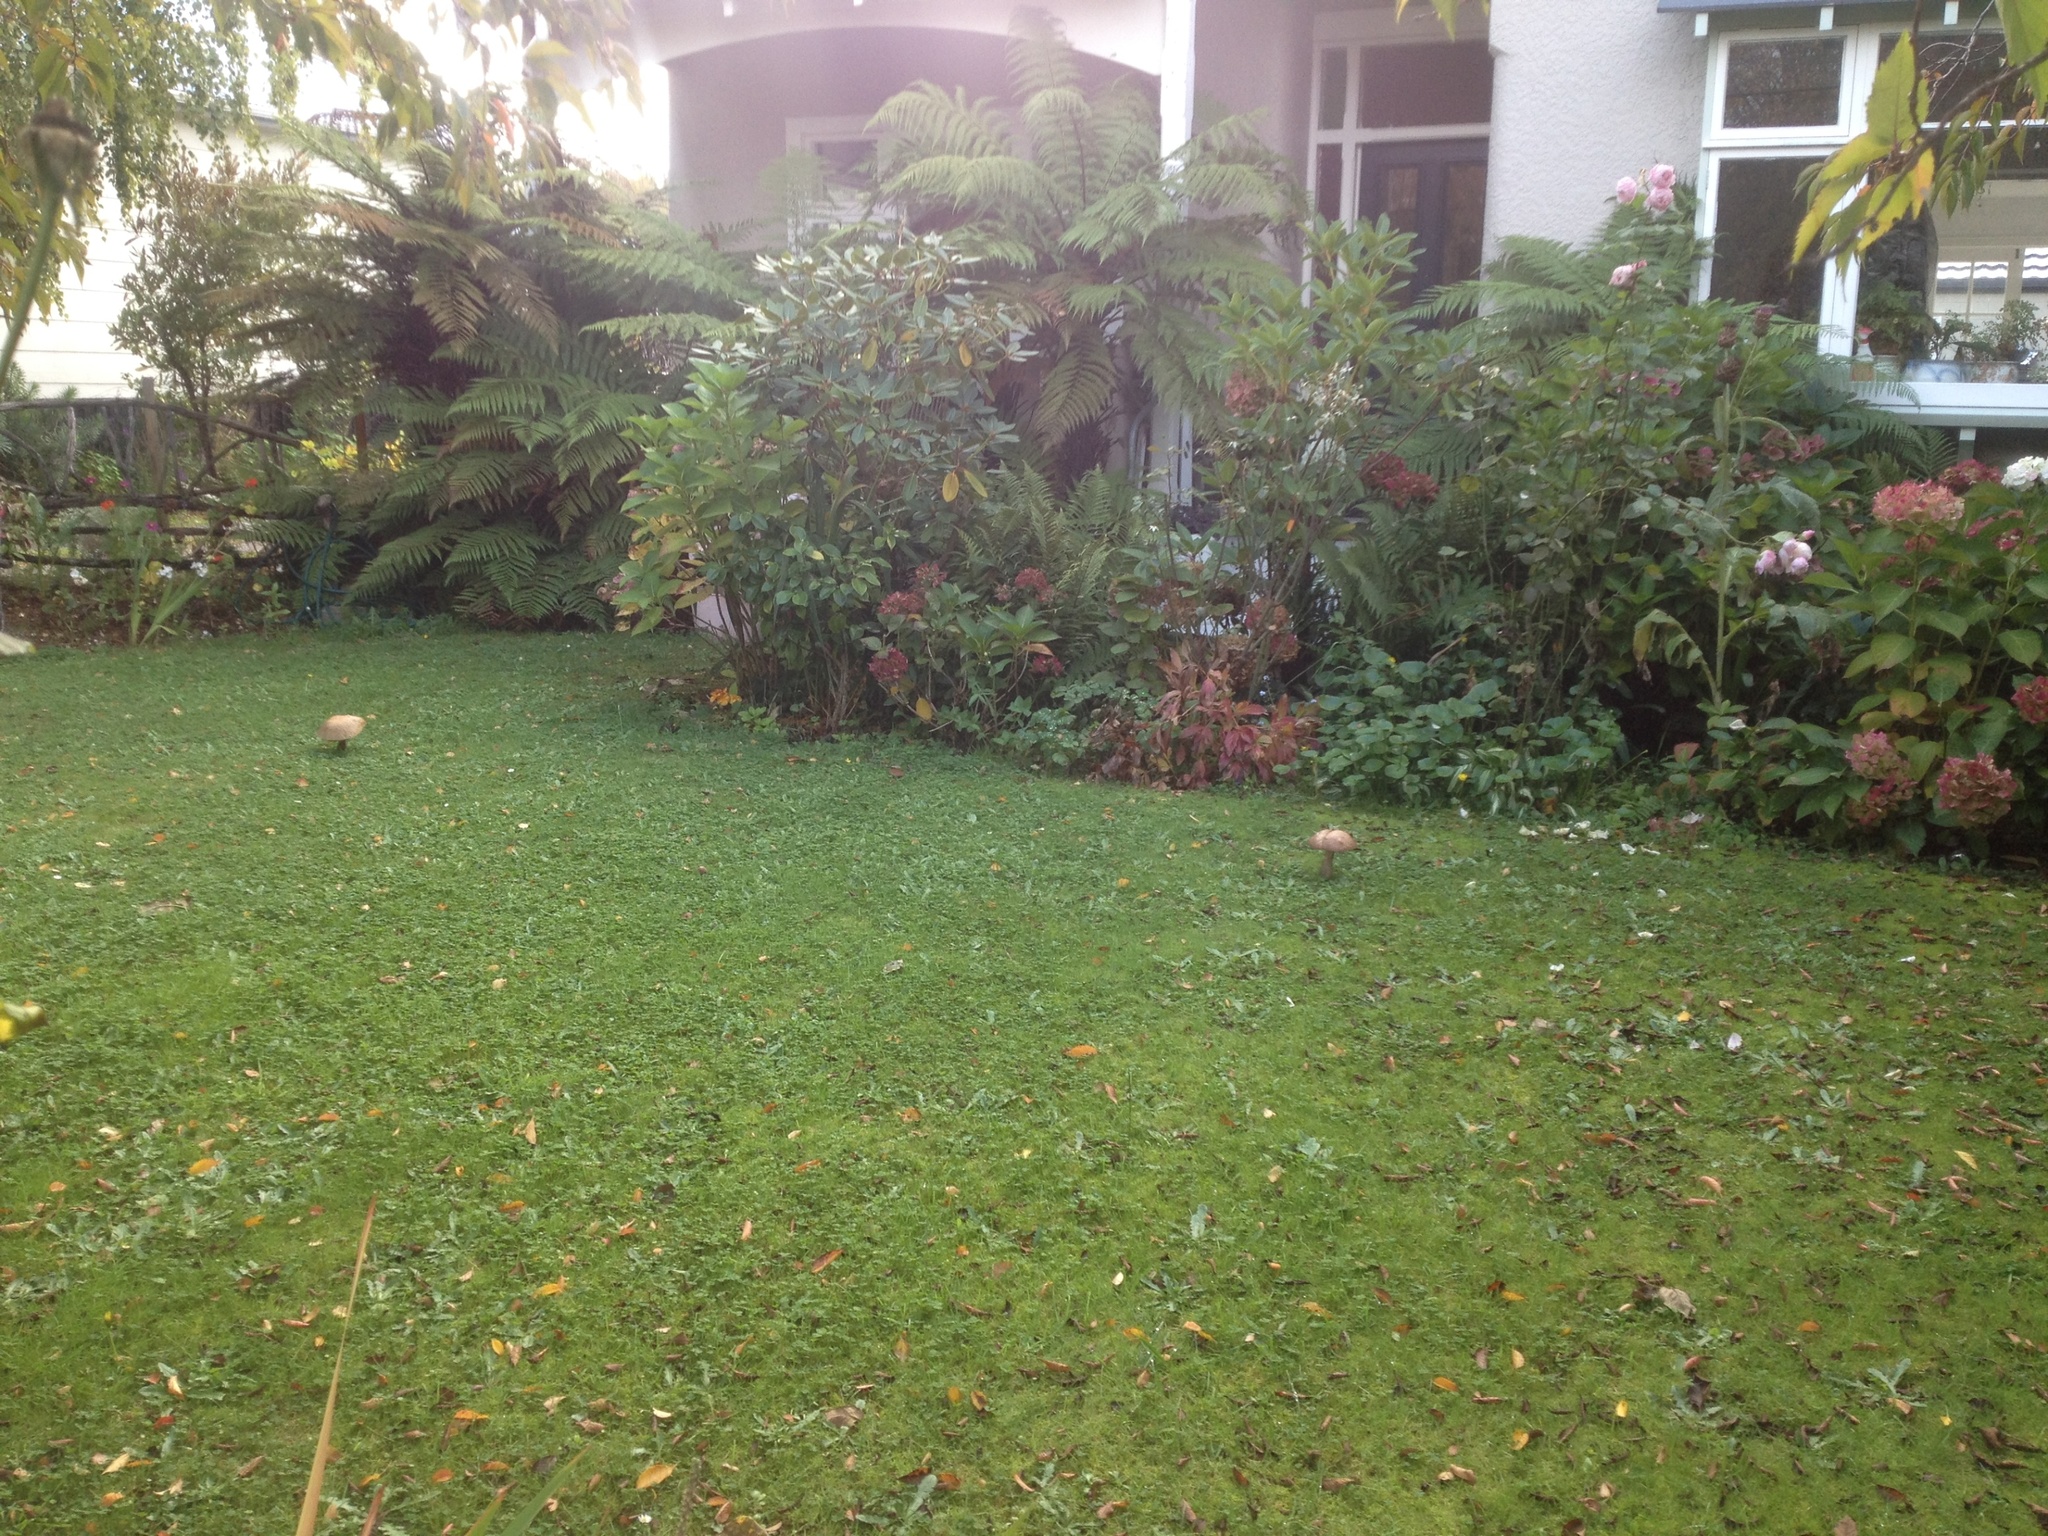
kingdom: Fungi
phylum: Basidiomycota
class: Agaricomycetes
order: Boletales
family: Boletaceae
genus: Leccinum
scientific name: Leccinum scabrum
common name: Blushing bolete
